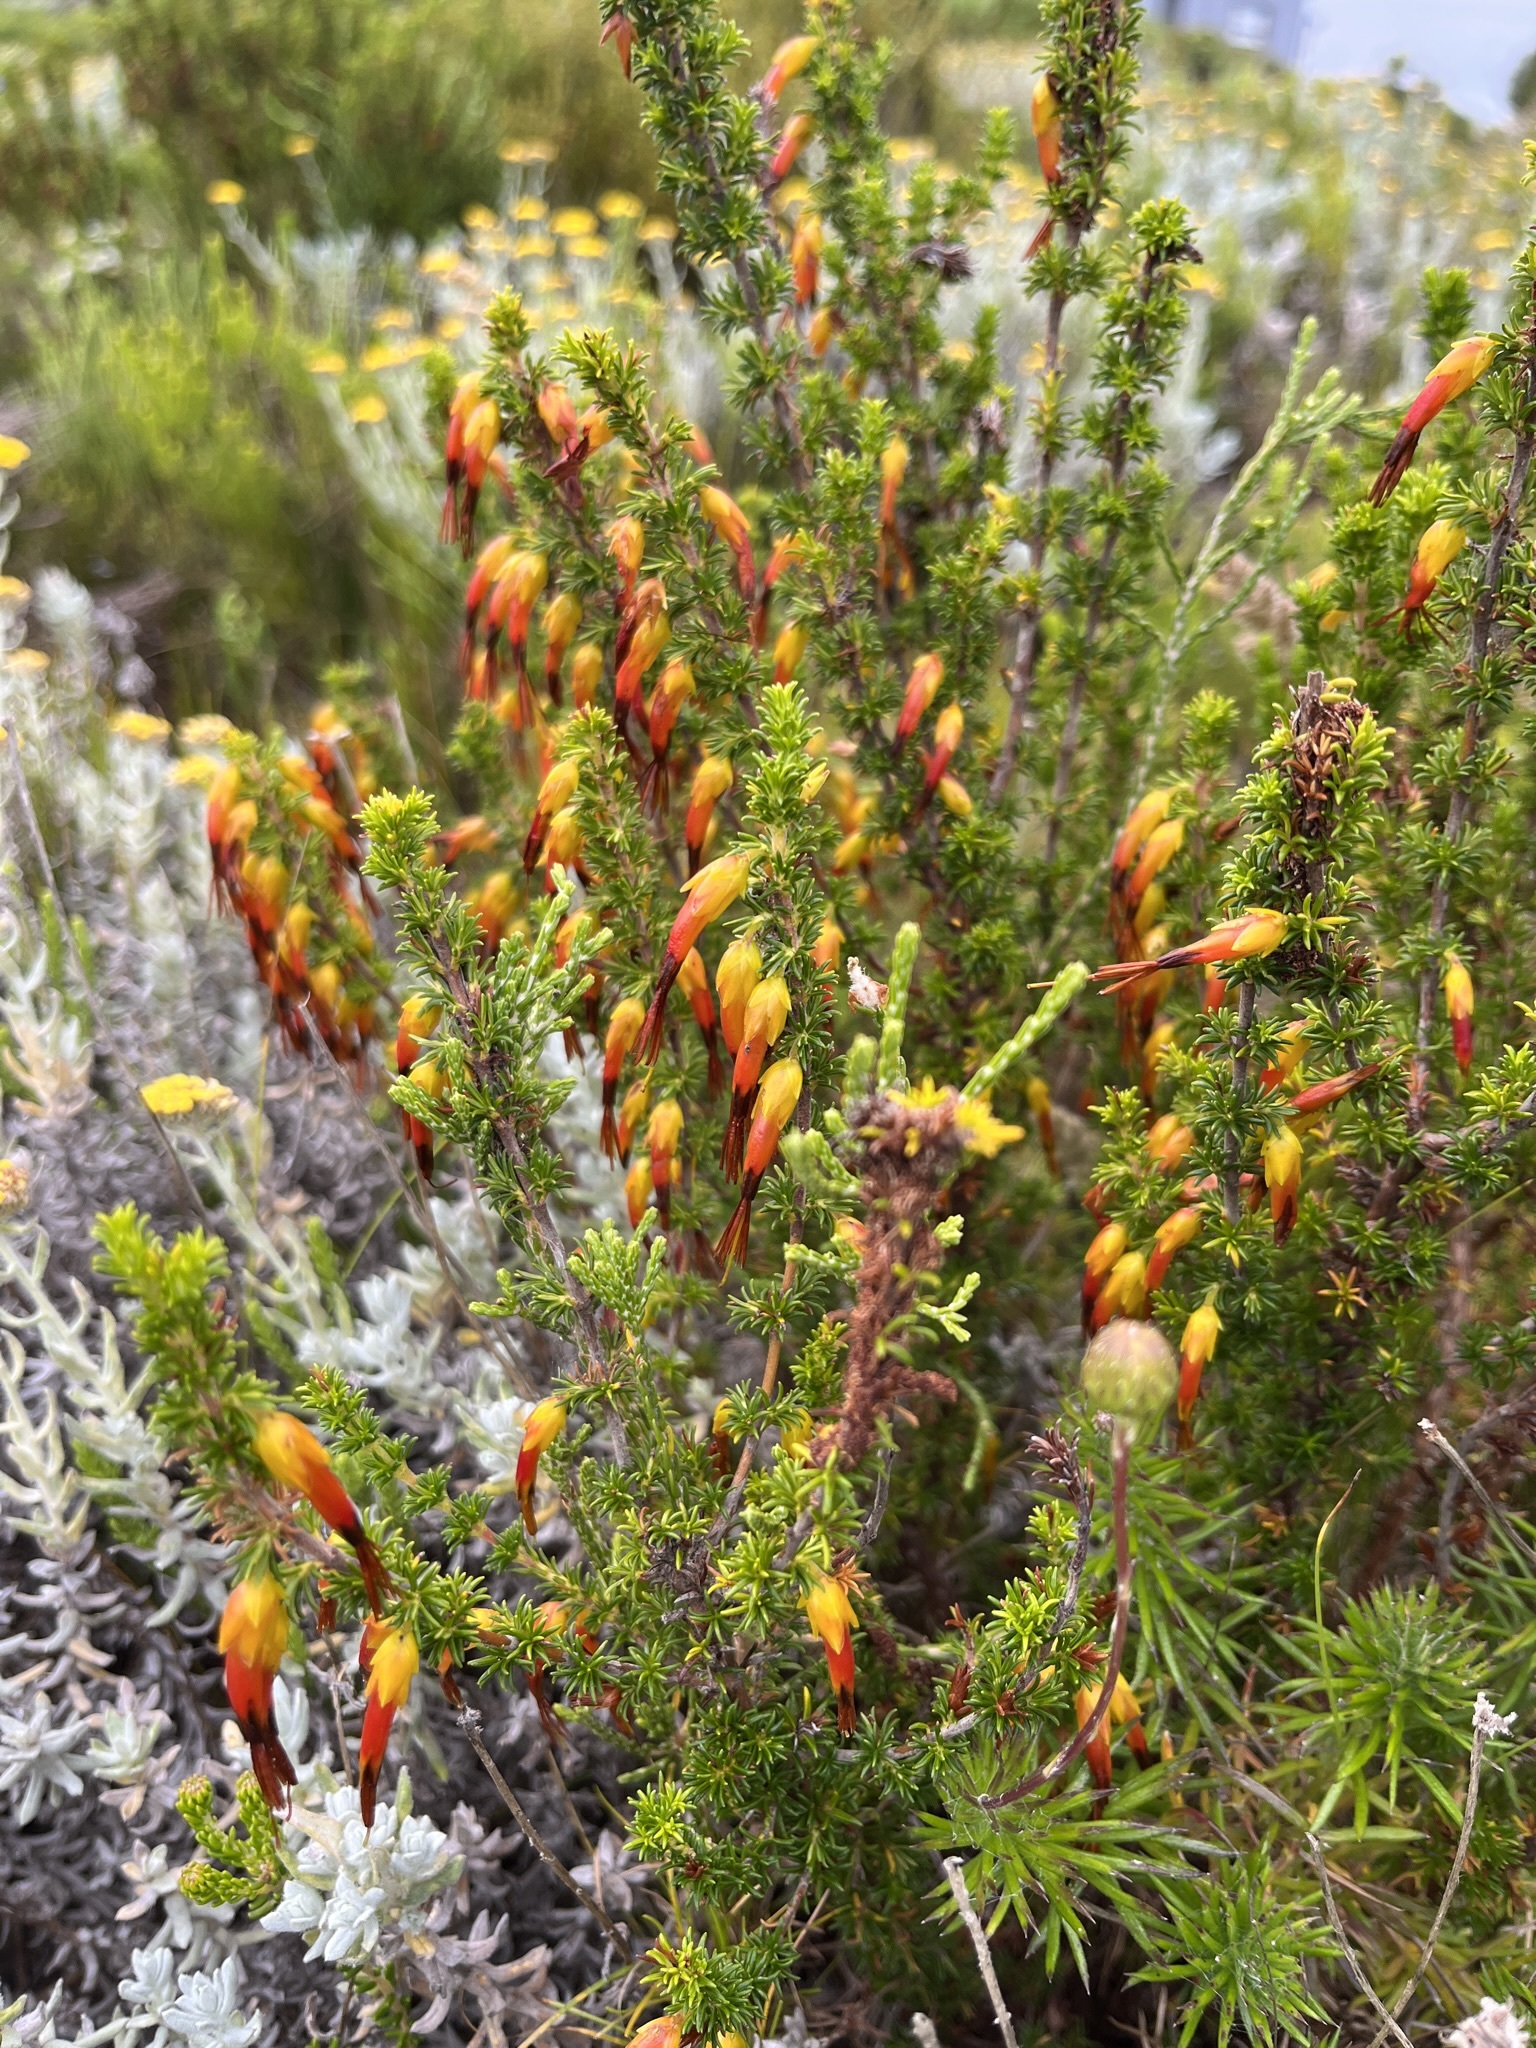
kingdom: Plantae
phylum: Tracheophyta
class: Magnoliopsida
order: Ericales
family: Ericaceae
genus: Erica
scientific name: Erica melastoma
